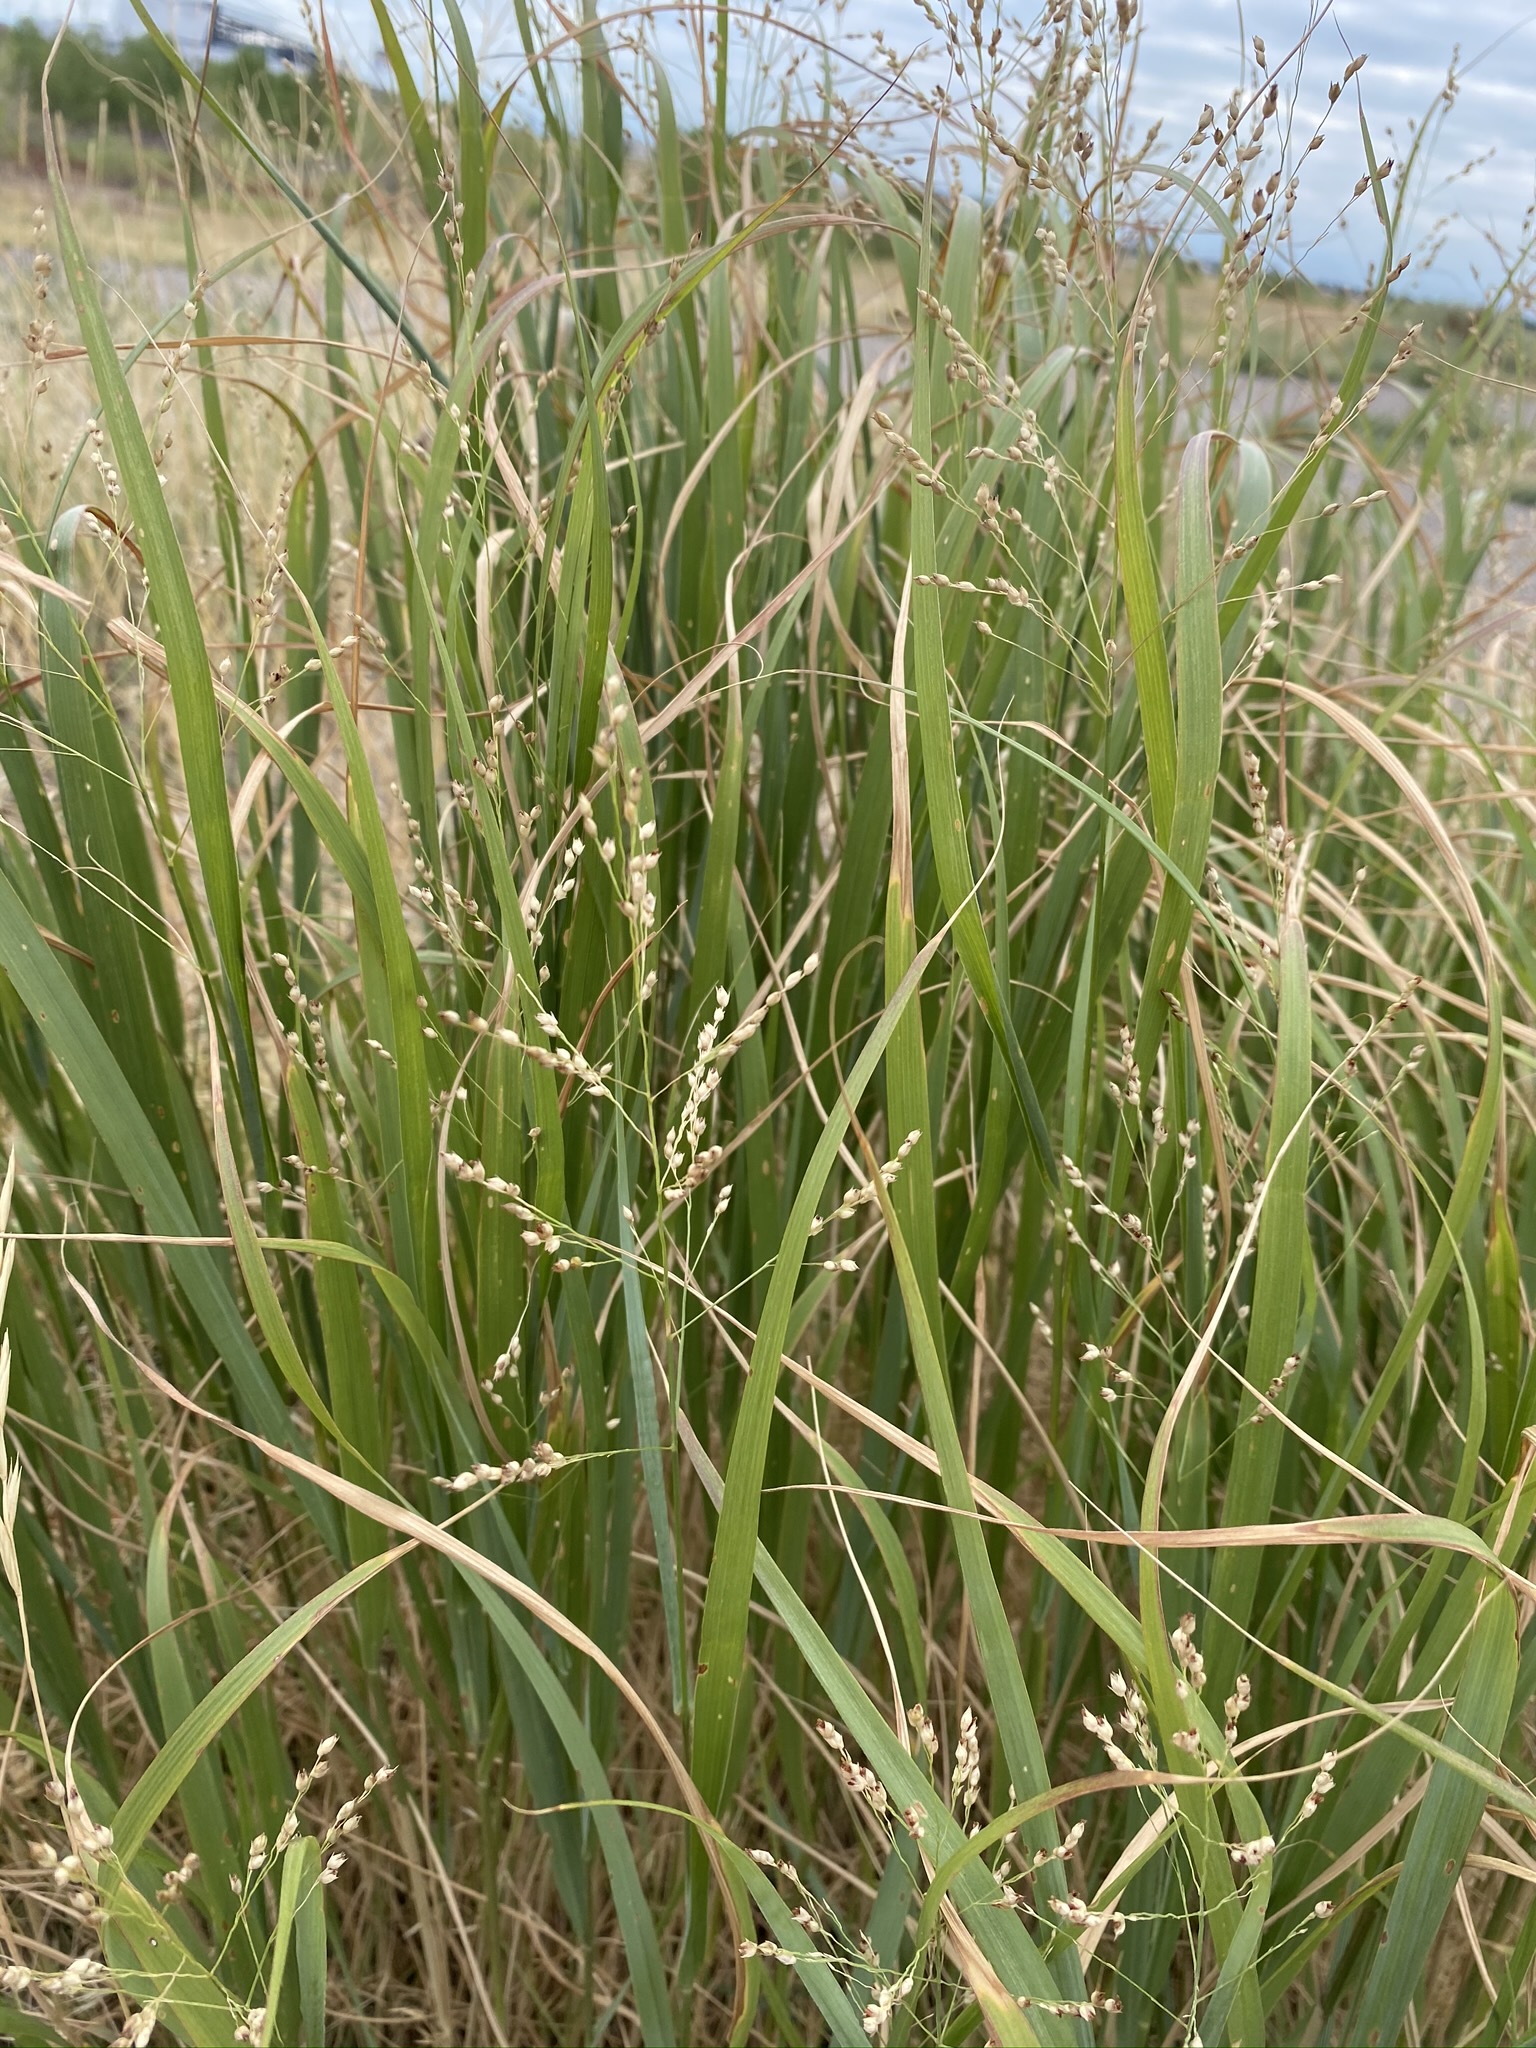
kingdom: Plantae
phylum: Tracheophyta
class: Liliopsida
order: Poales
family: Poaceae
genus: Panicum
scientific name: Panicum virgatum
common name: Switchgrass
